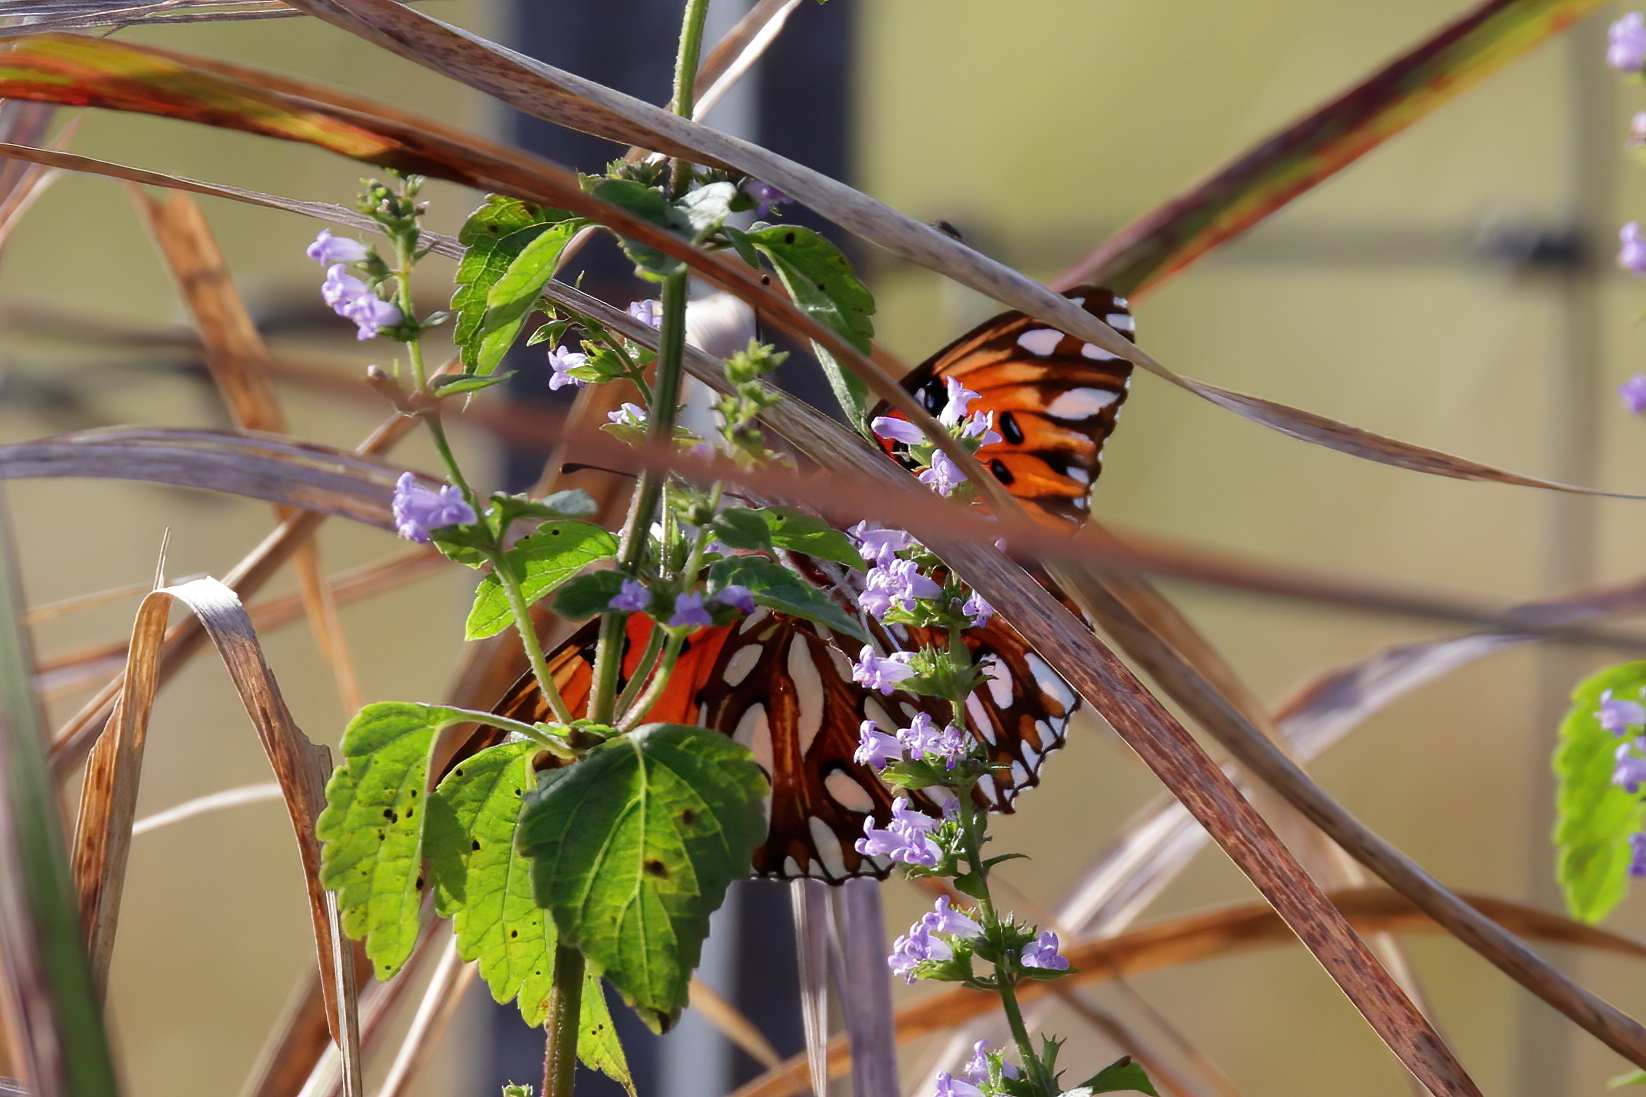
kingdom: Animalia
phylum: Arthropoda
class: Insecta
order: Lepidoptera
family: Nymphalidae
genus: Dione
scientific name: Dione vanillae
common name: Gulf fritillary
